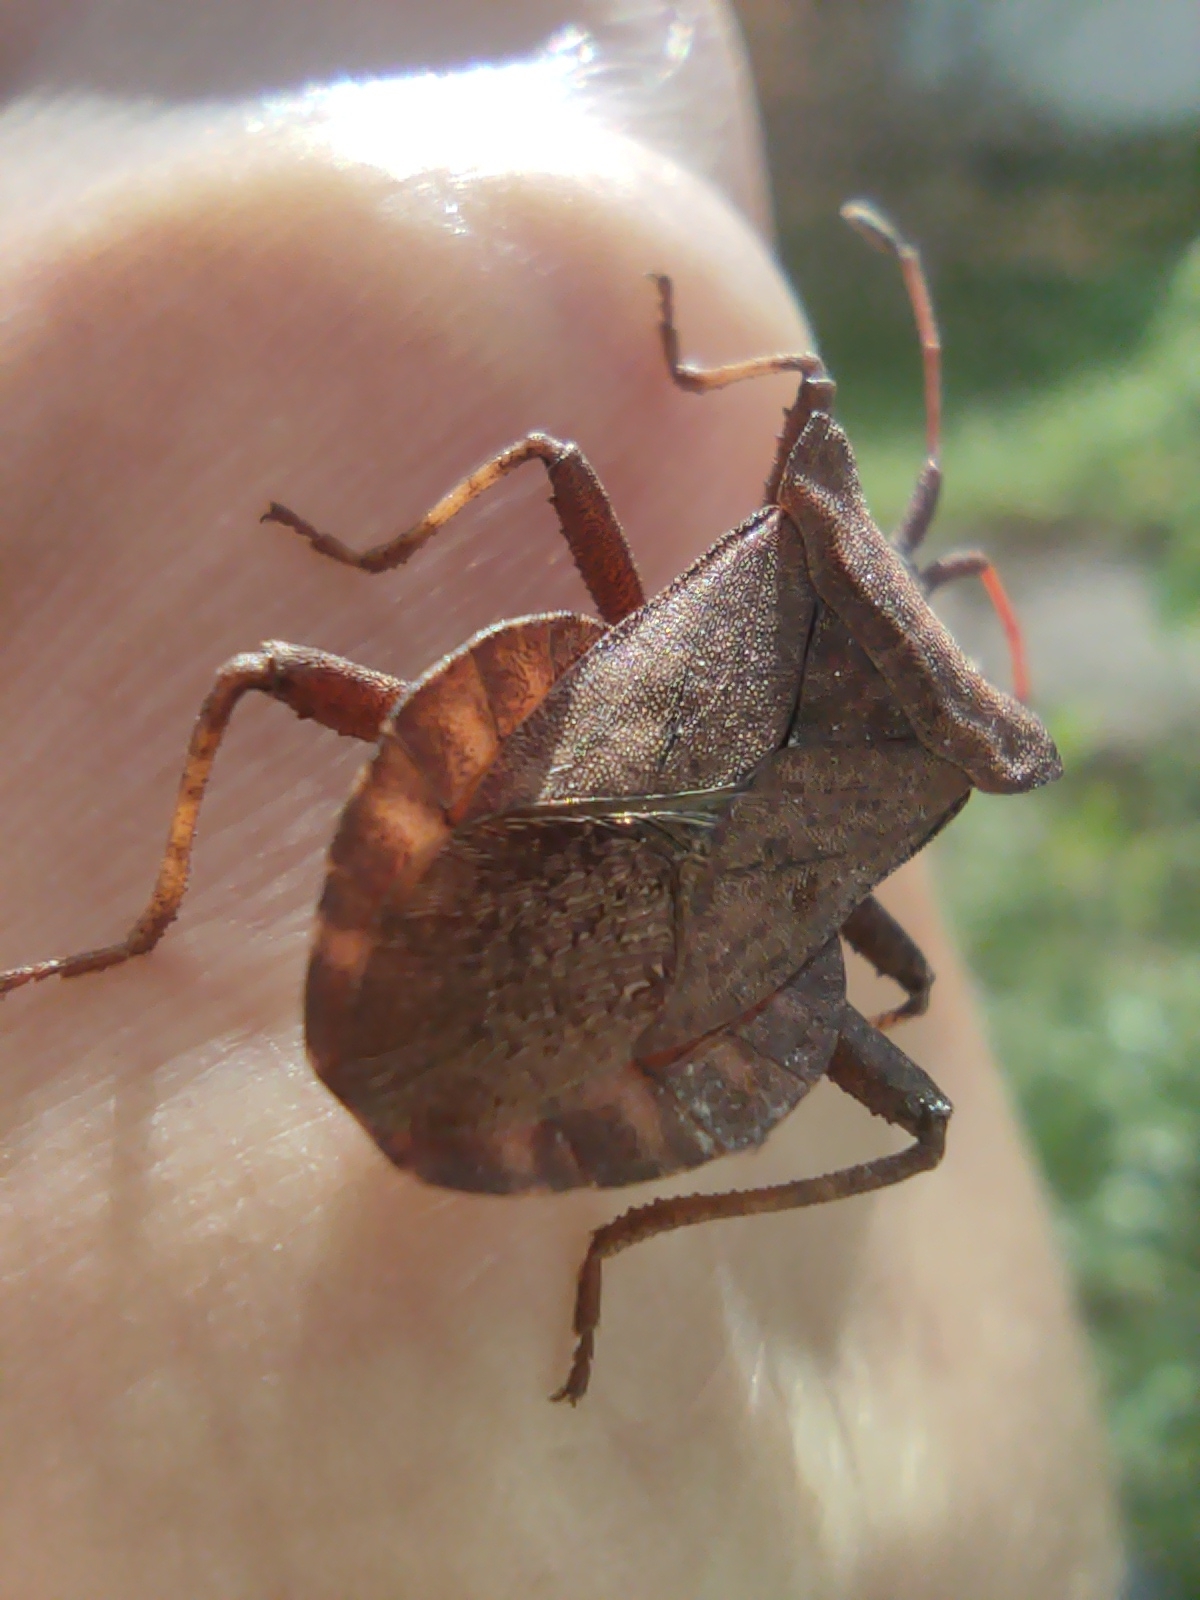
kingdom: Animalia
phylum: Arthropoda
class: Insecta
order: Hemiptera
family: Coreidae
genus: Coreus
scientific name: Coreus marginatus
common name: Dock bug
